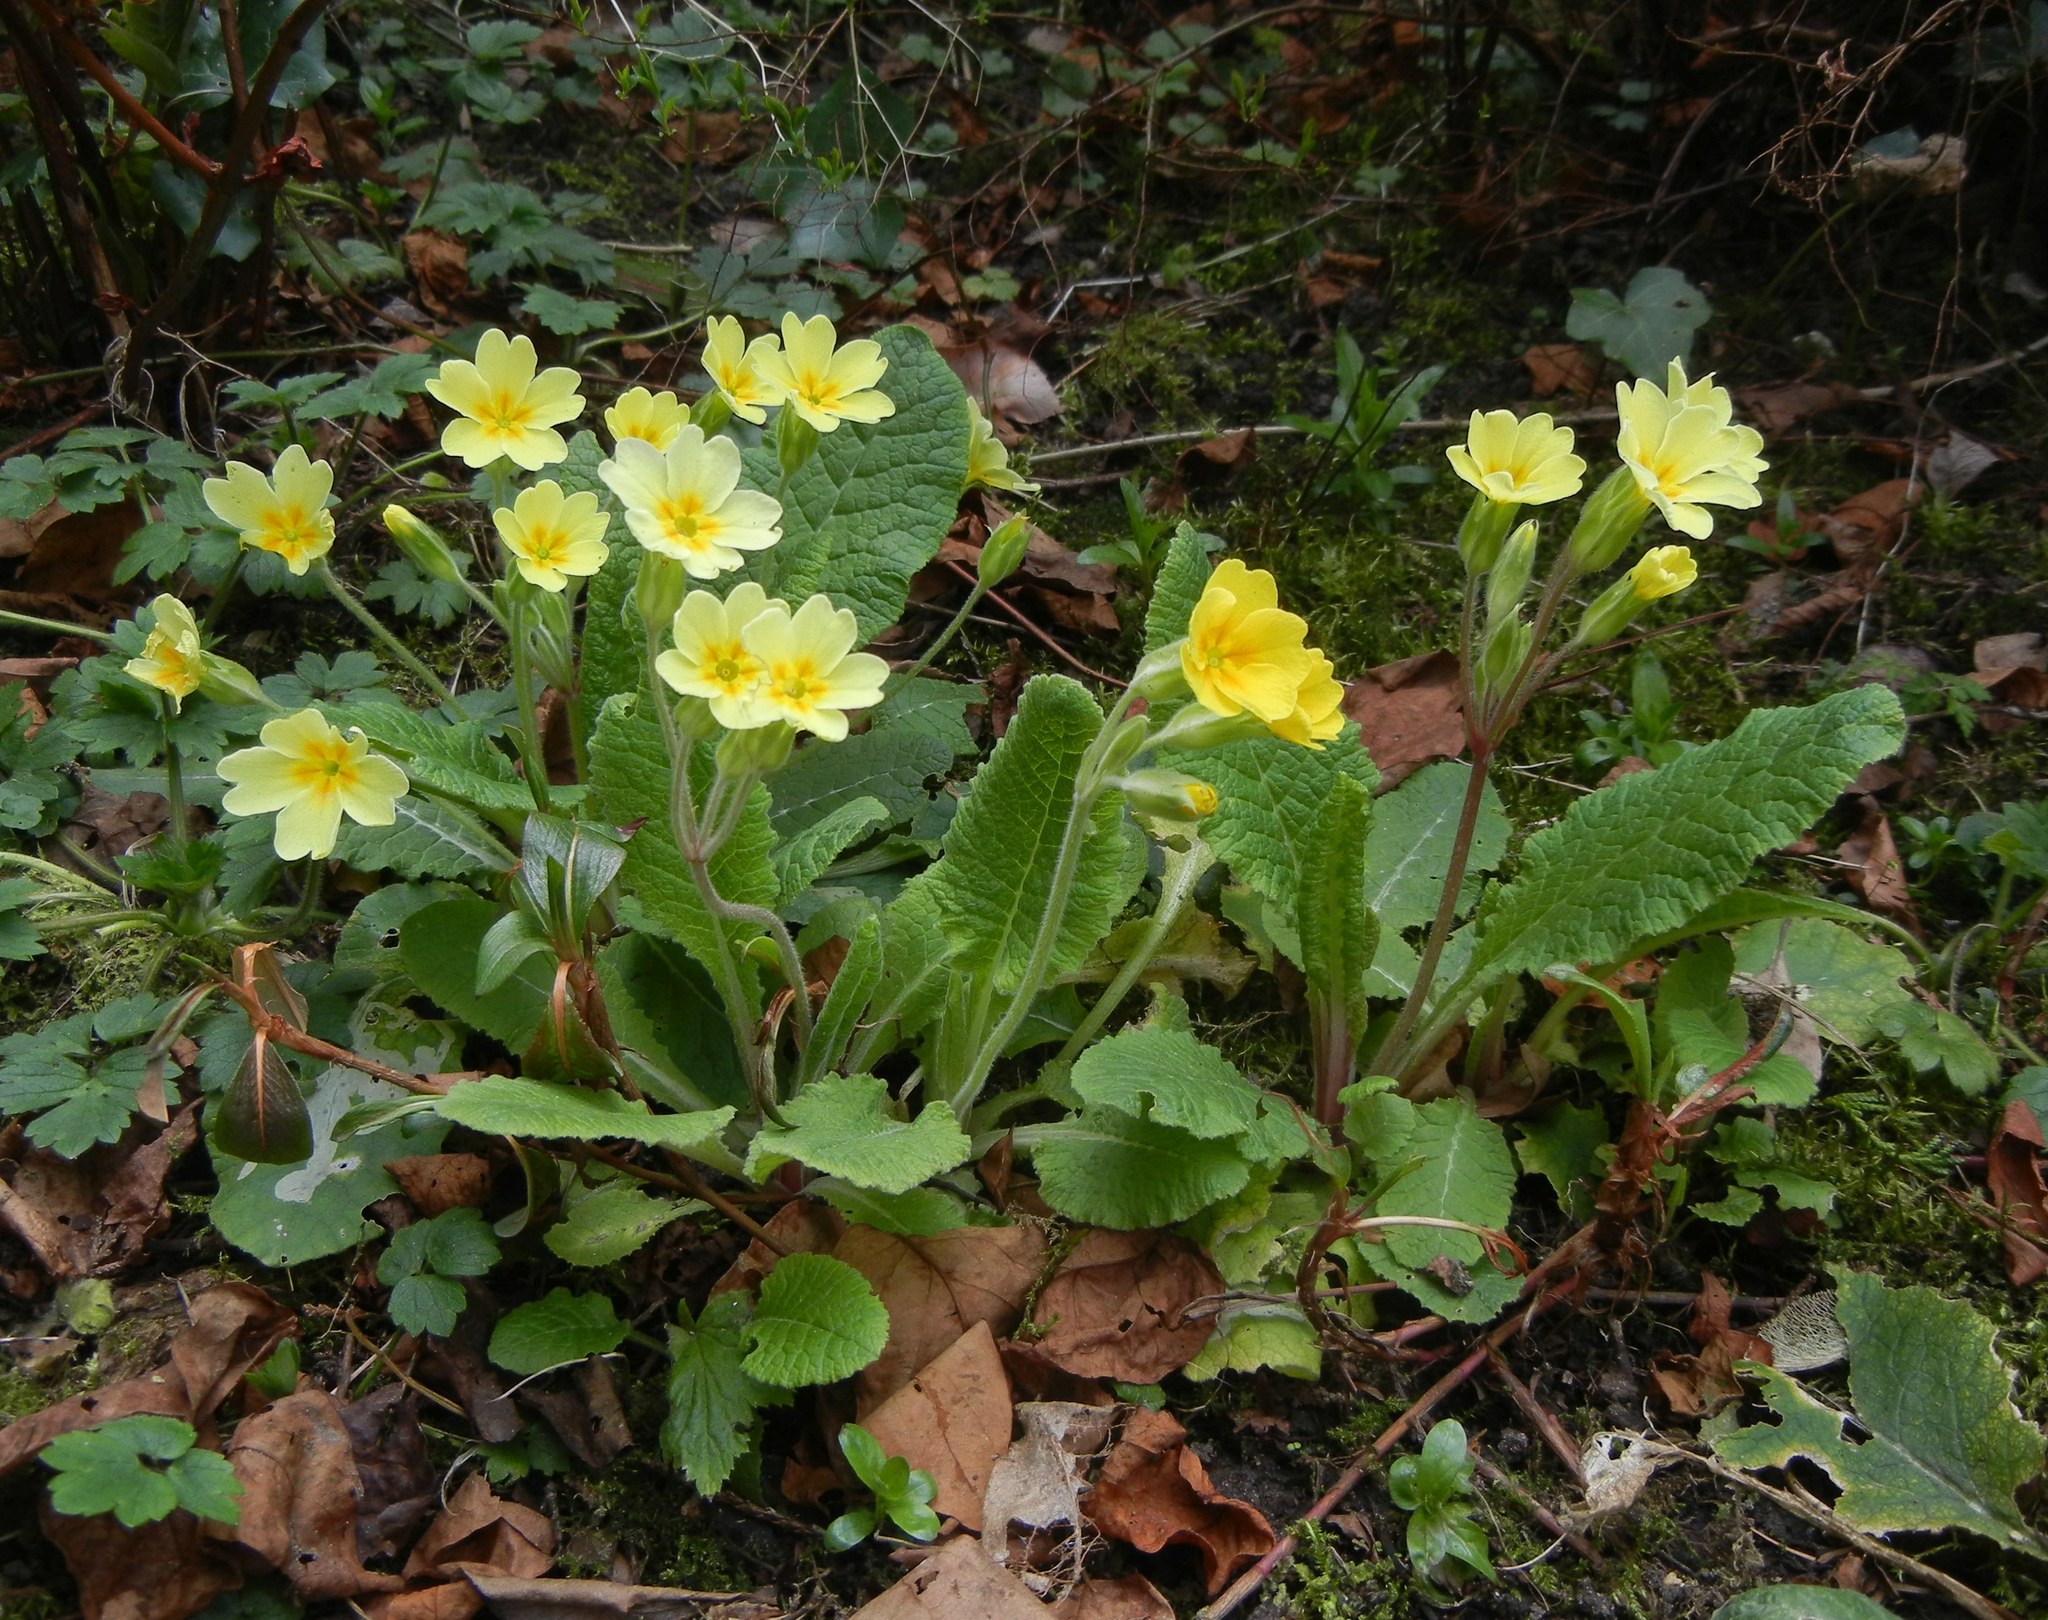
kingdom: Plantae
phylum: Tracheophyta
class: Magnoliopsida
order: Ericales
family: Primulaceae
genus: Primula
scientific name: Primula polyantha
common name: False oxlip
